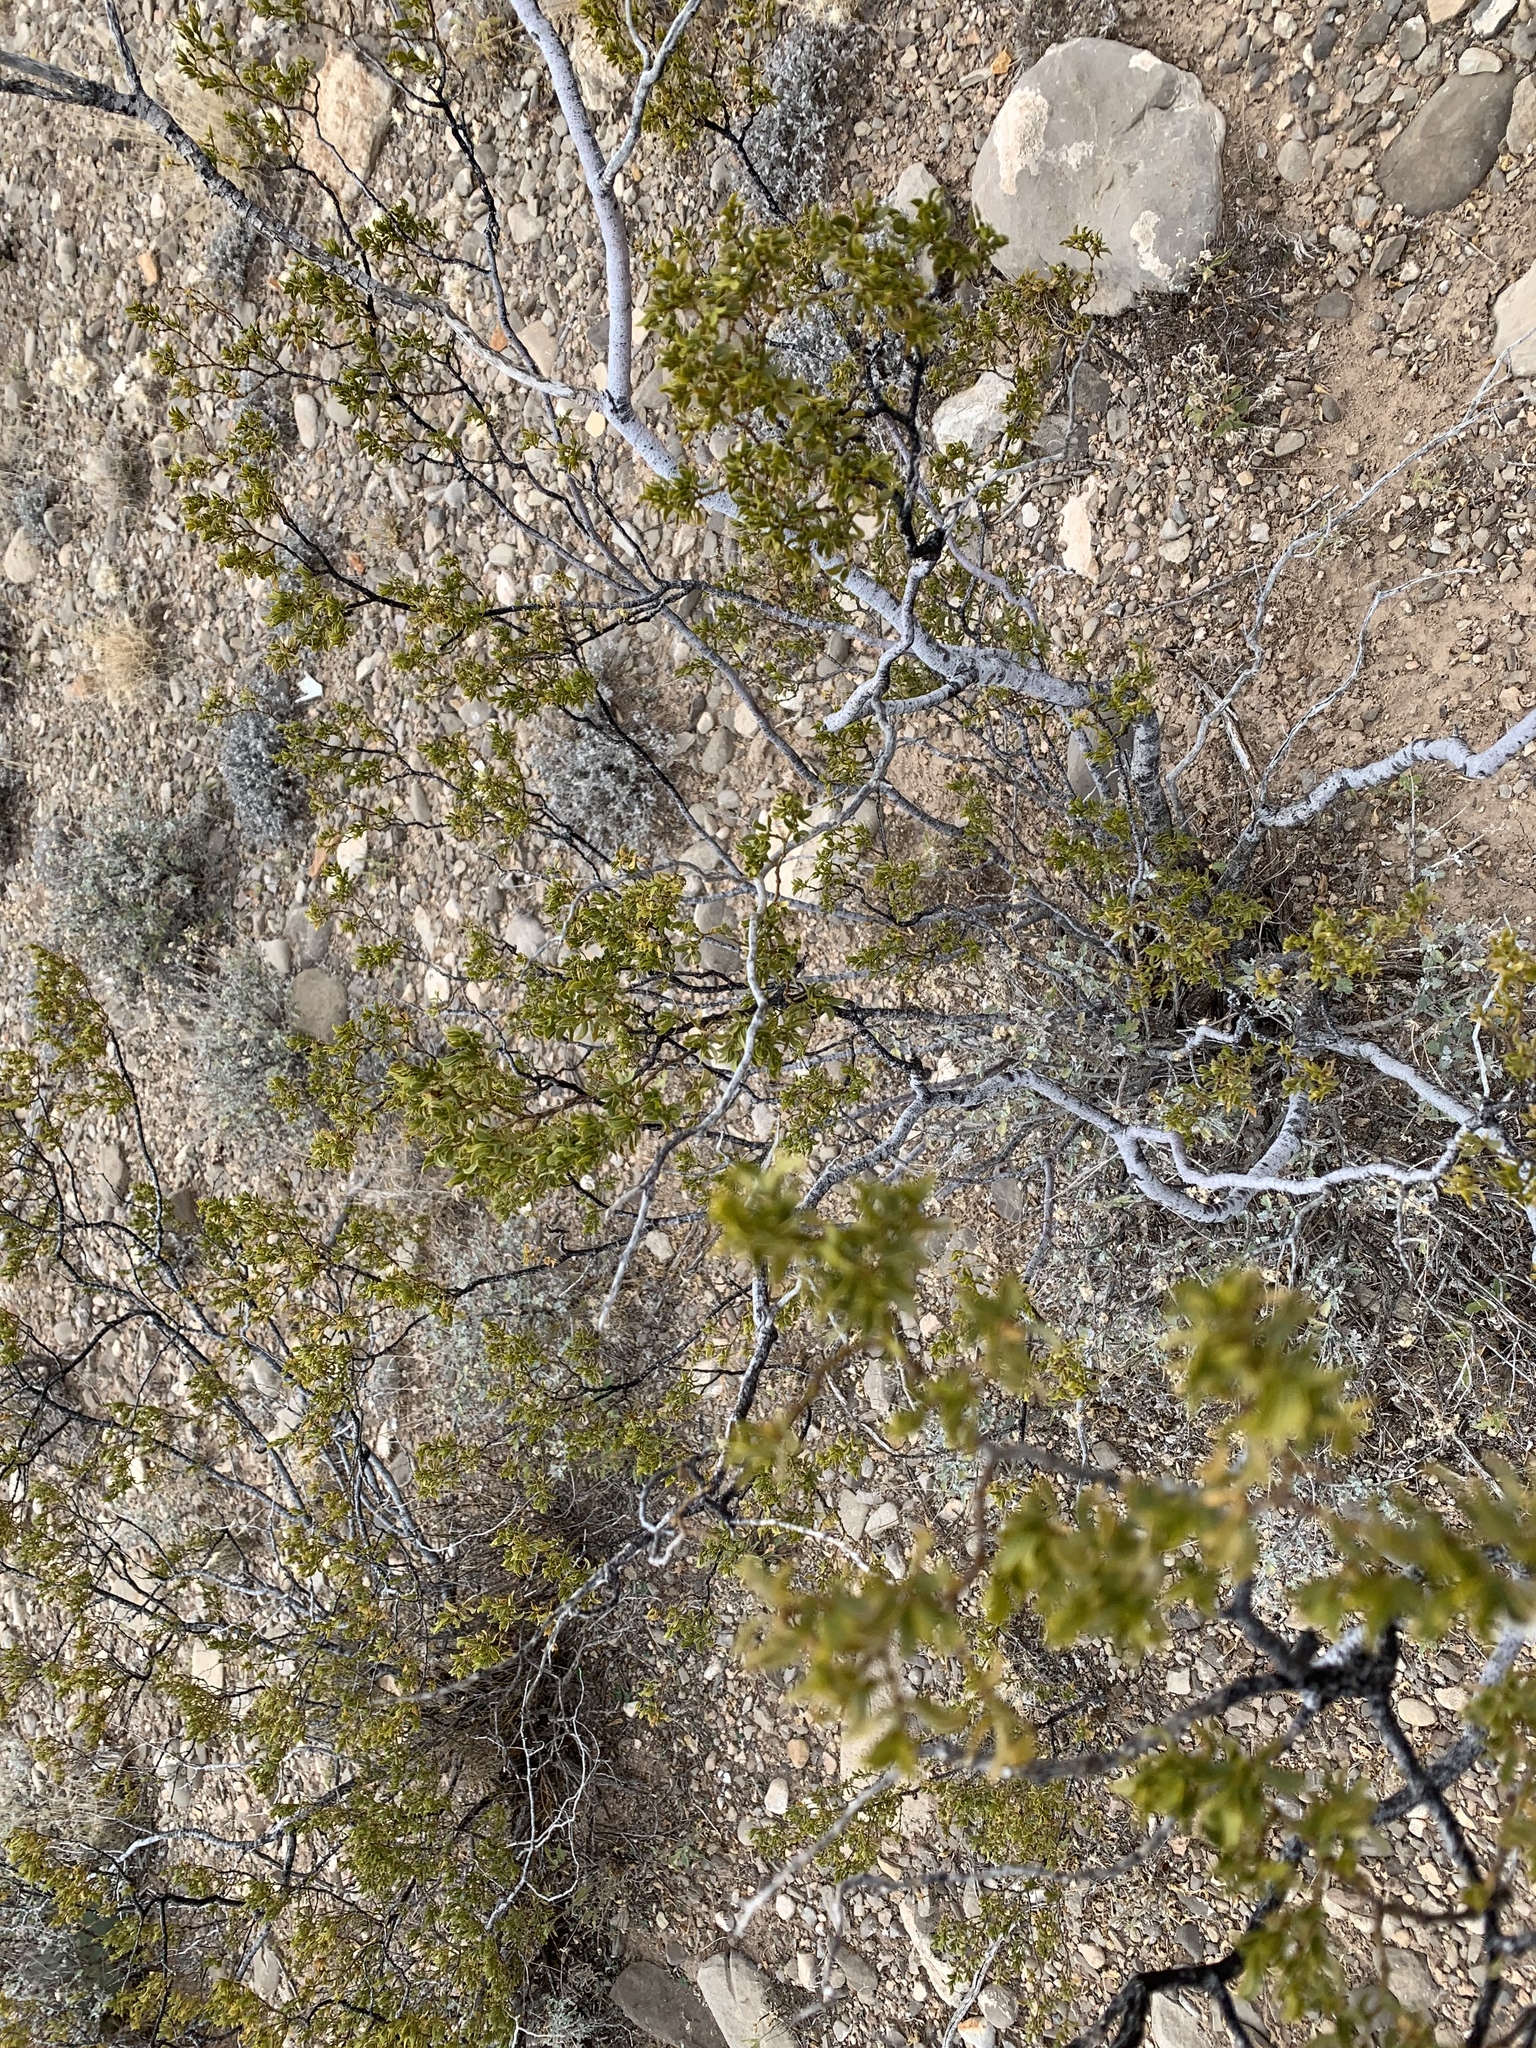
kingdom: Plantae
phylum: Tracheophyta
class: Magnoliopsida
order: Zygophyllales
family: Zygophyllaceae
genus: Larrea
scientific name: Larrea tridentata
